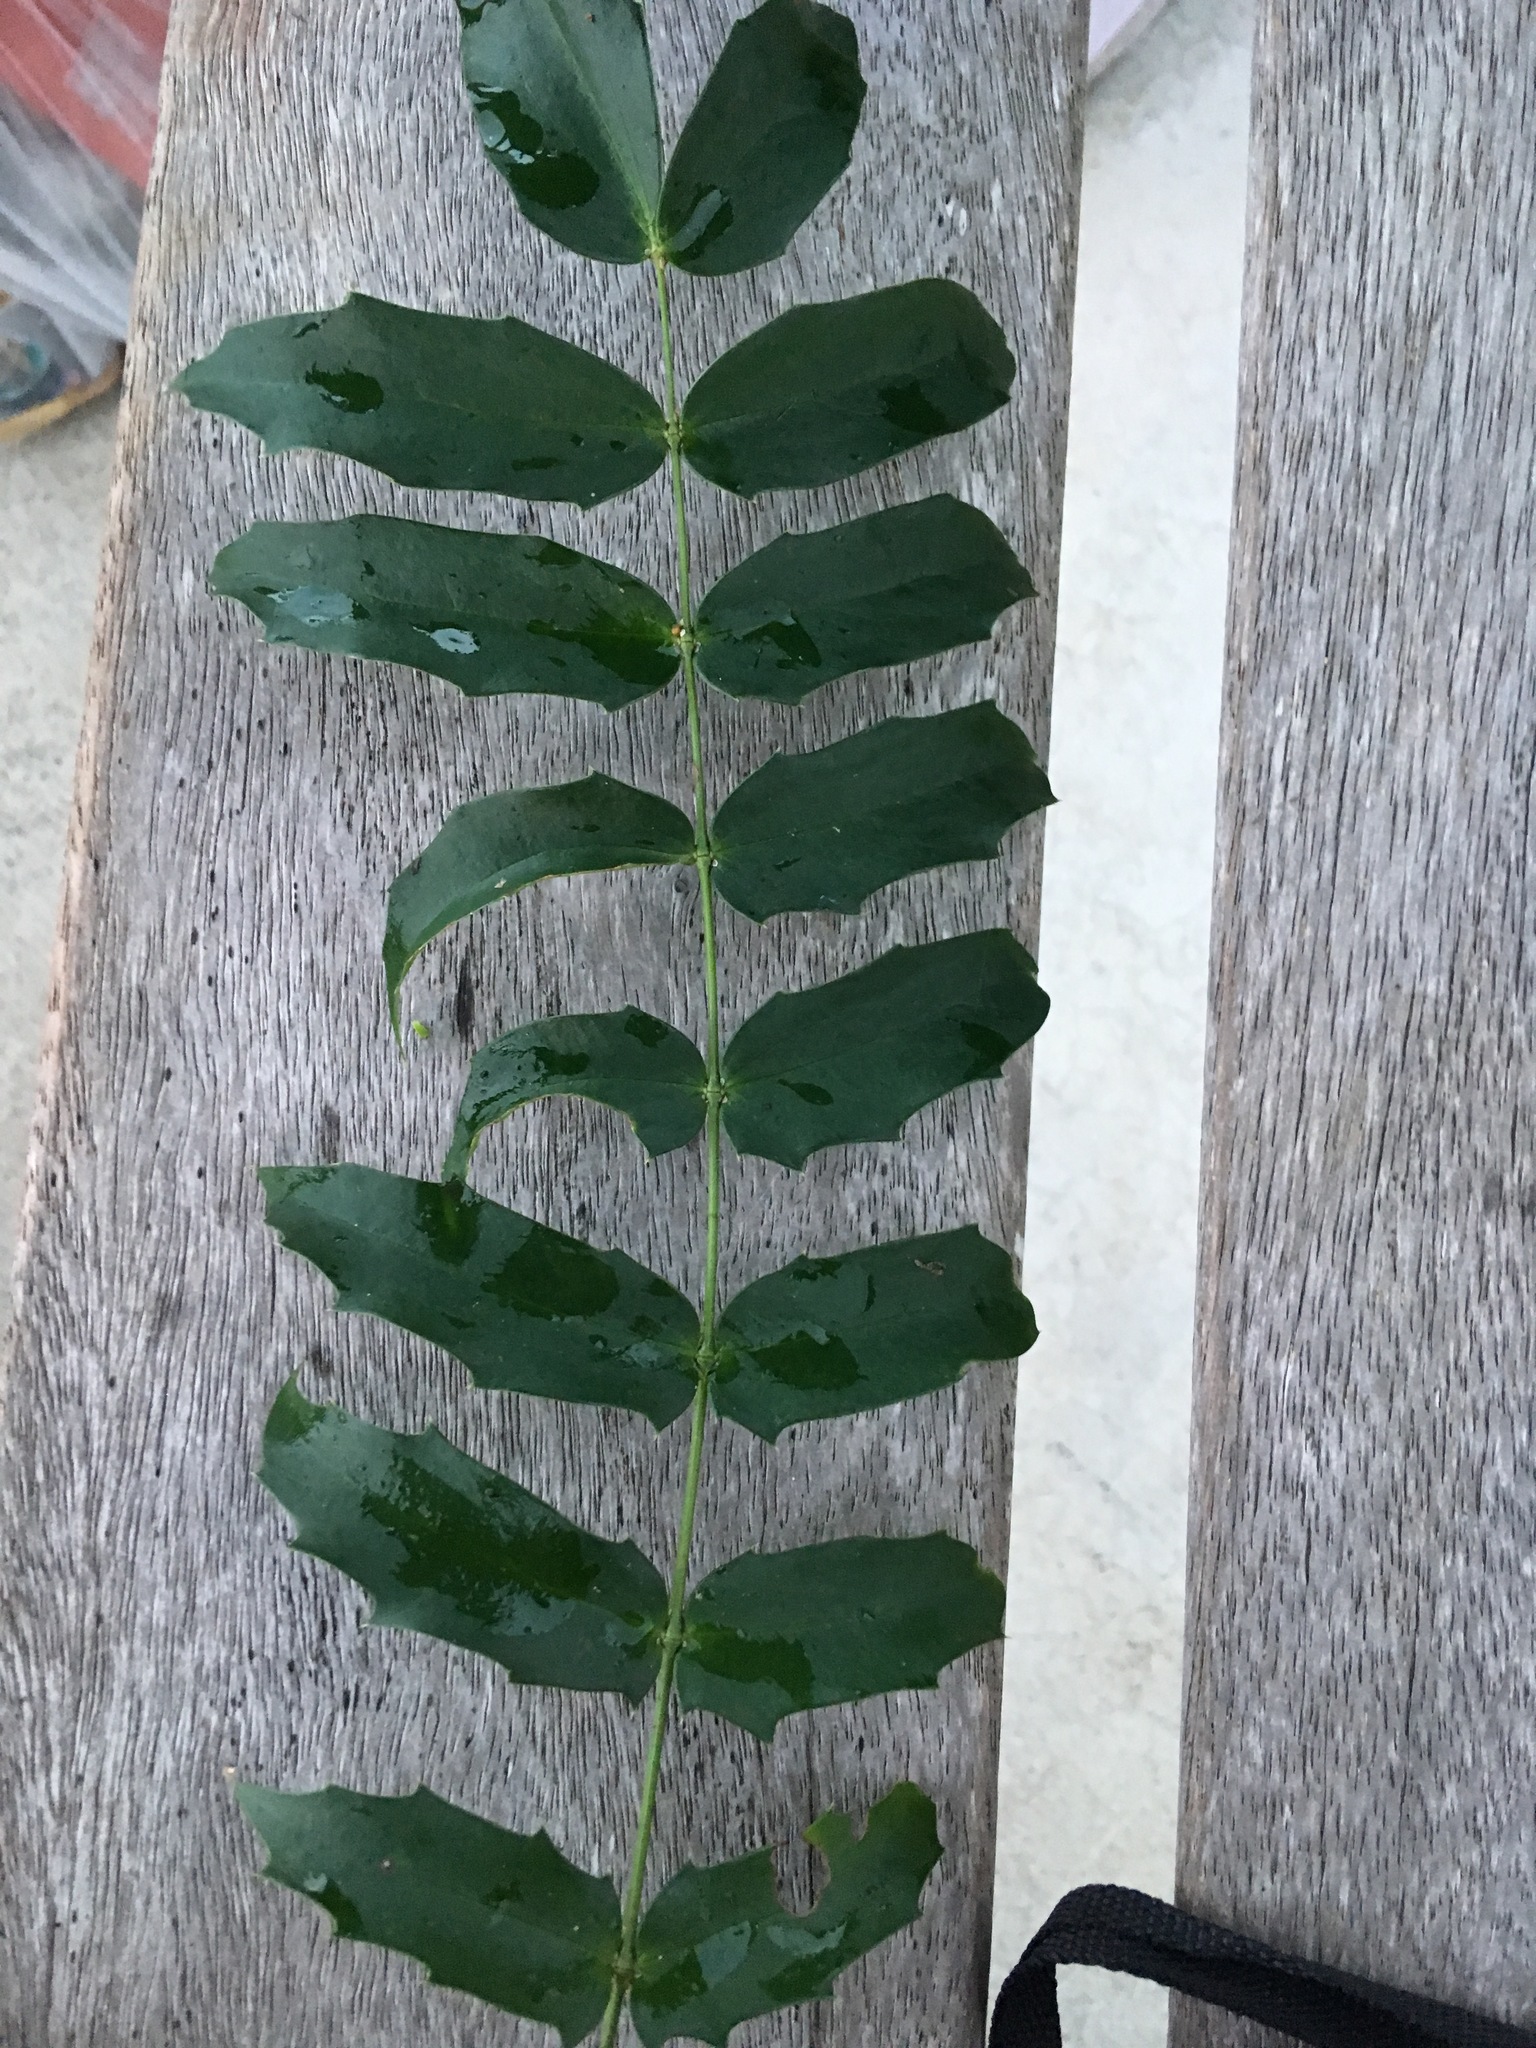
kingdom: Plantae
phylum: Tracheophyta
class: Magnoliopsida
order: Ranunculales
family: Berberidaceae
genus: Mahonia
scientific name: Mahonia oiwakensis
